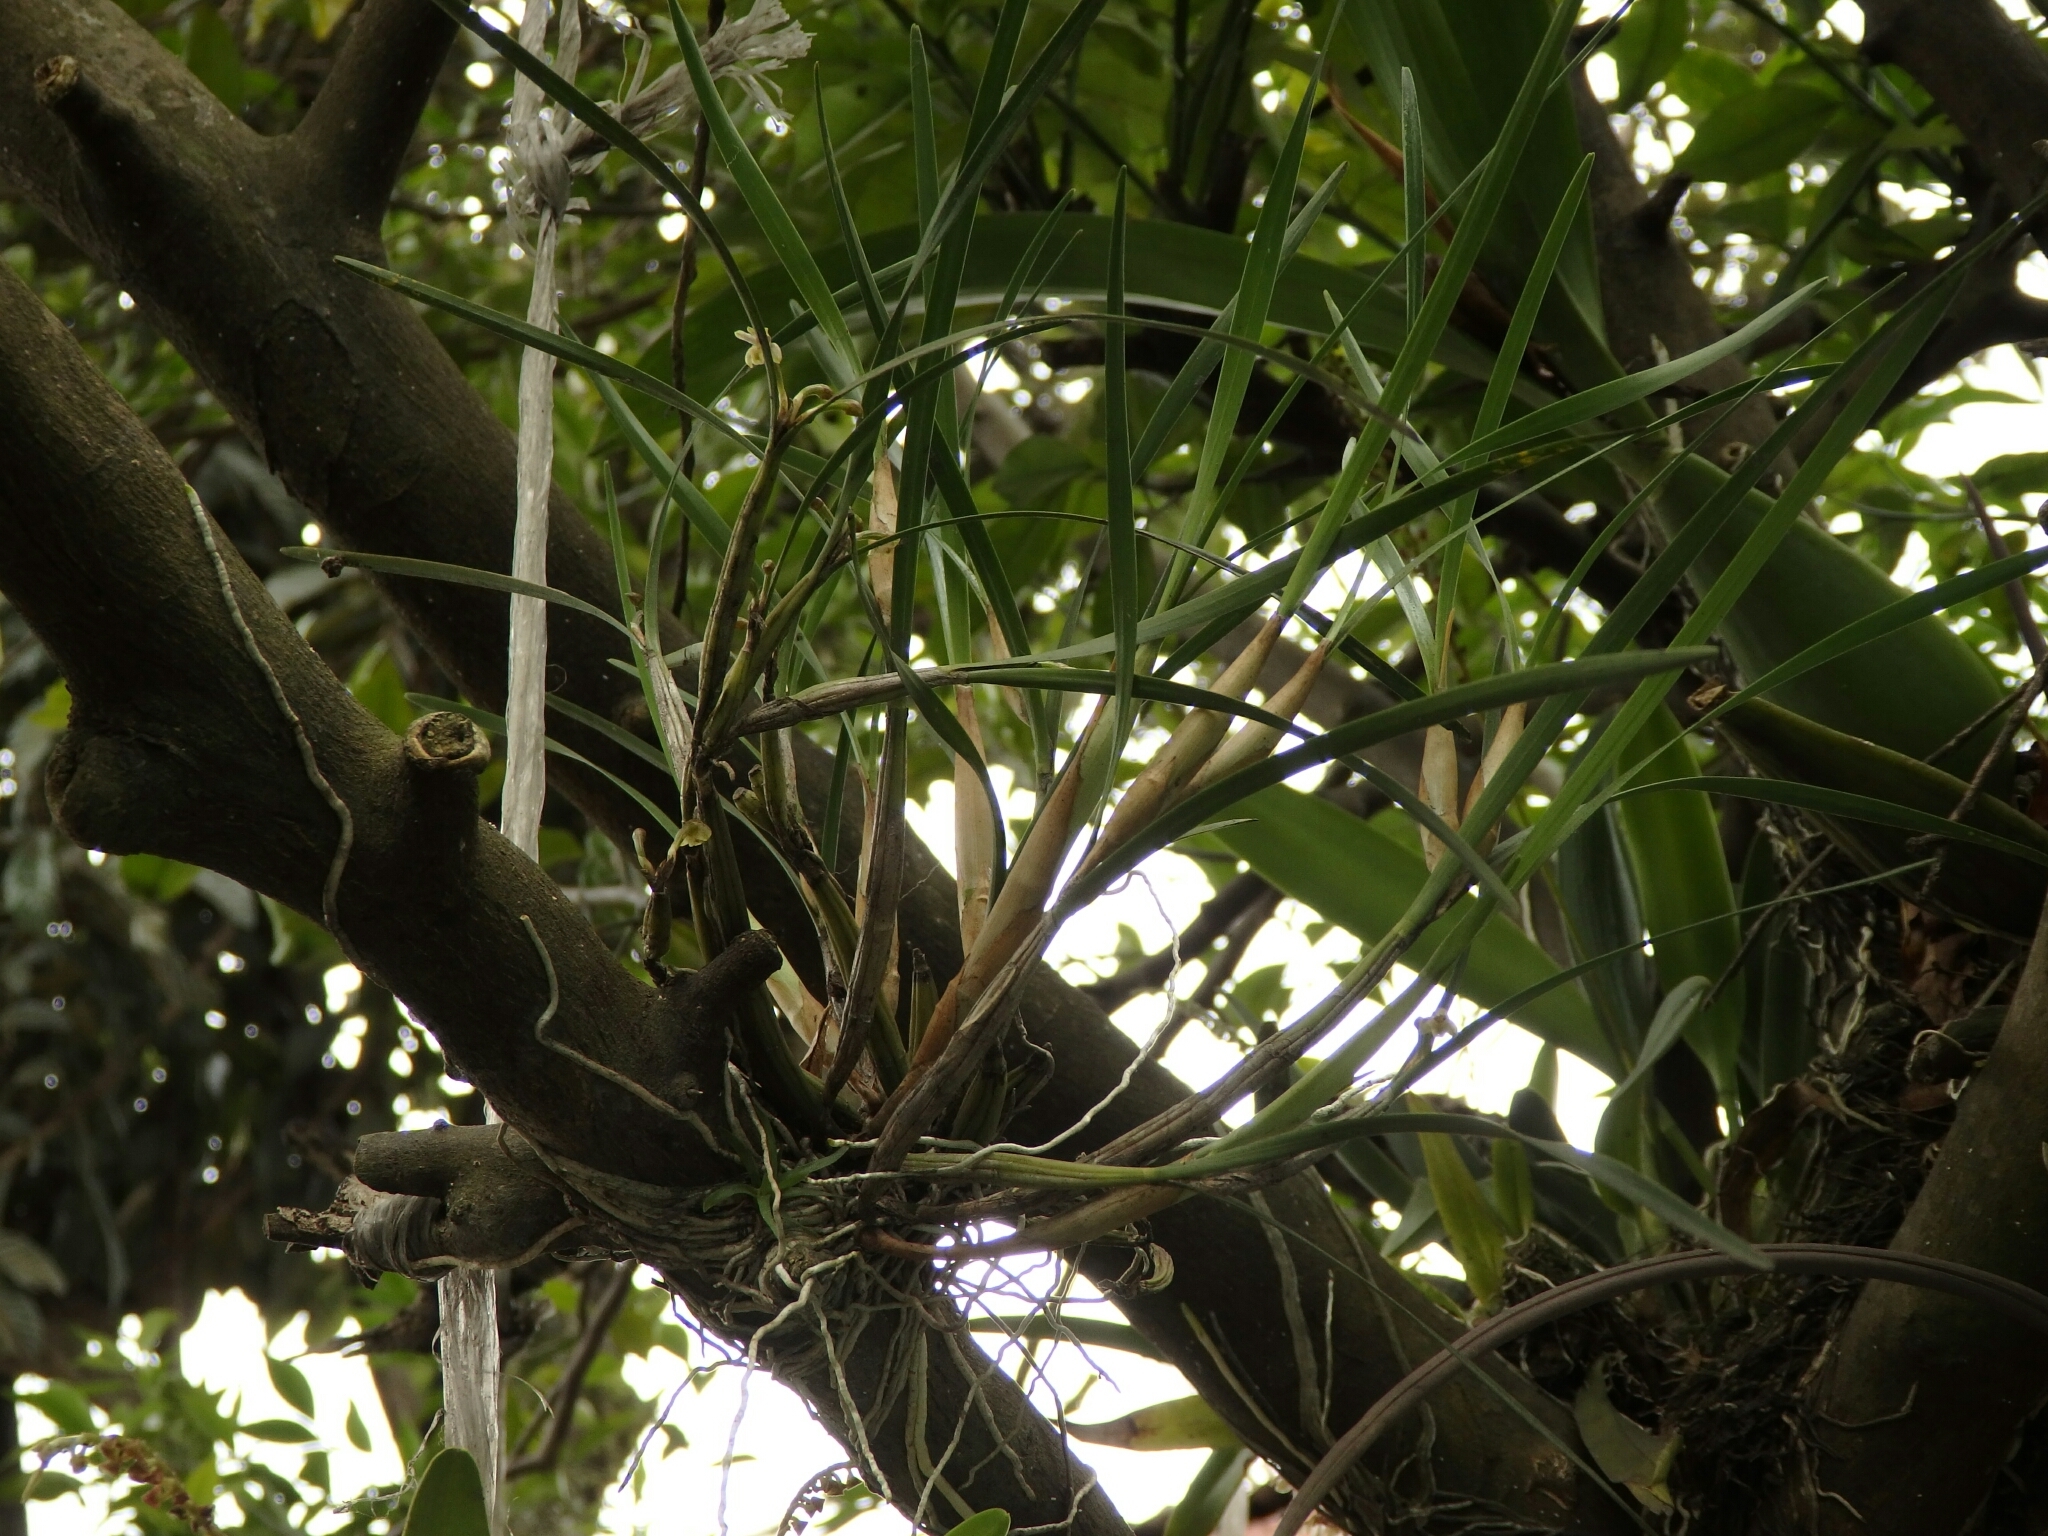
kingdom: Plantae
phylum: Tracheophyta
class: Liliopsida
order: Asparagales
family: Orchidaceae
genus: Scaphyglottis
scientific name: Scaphyglottis fasciculata
